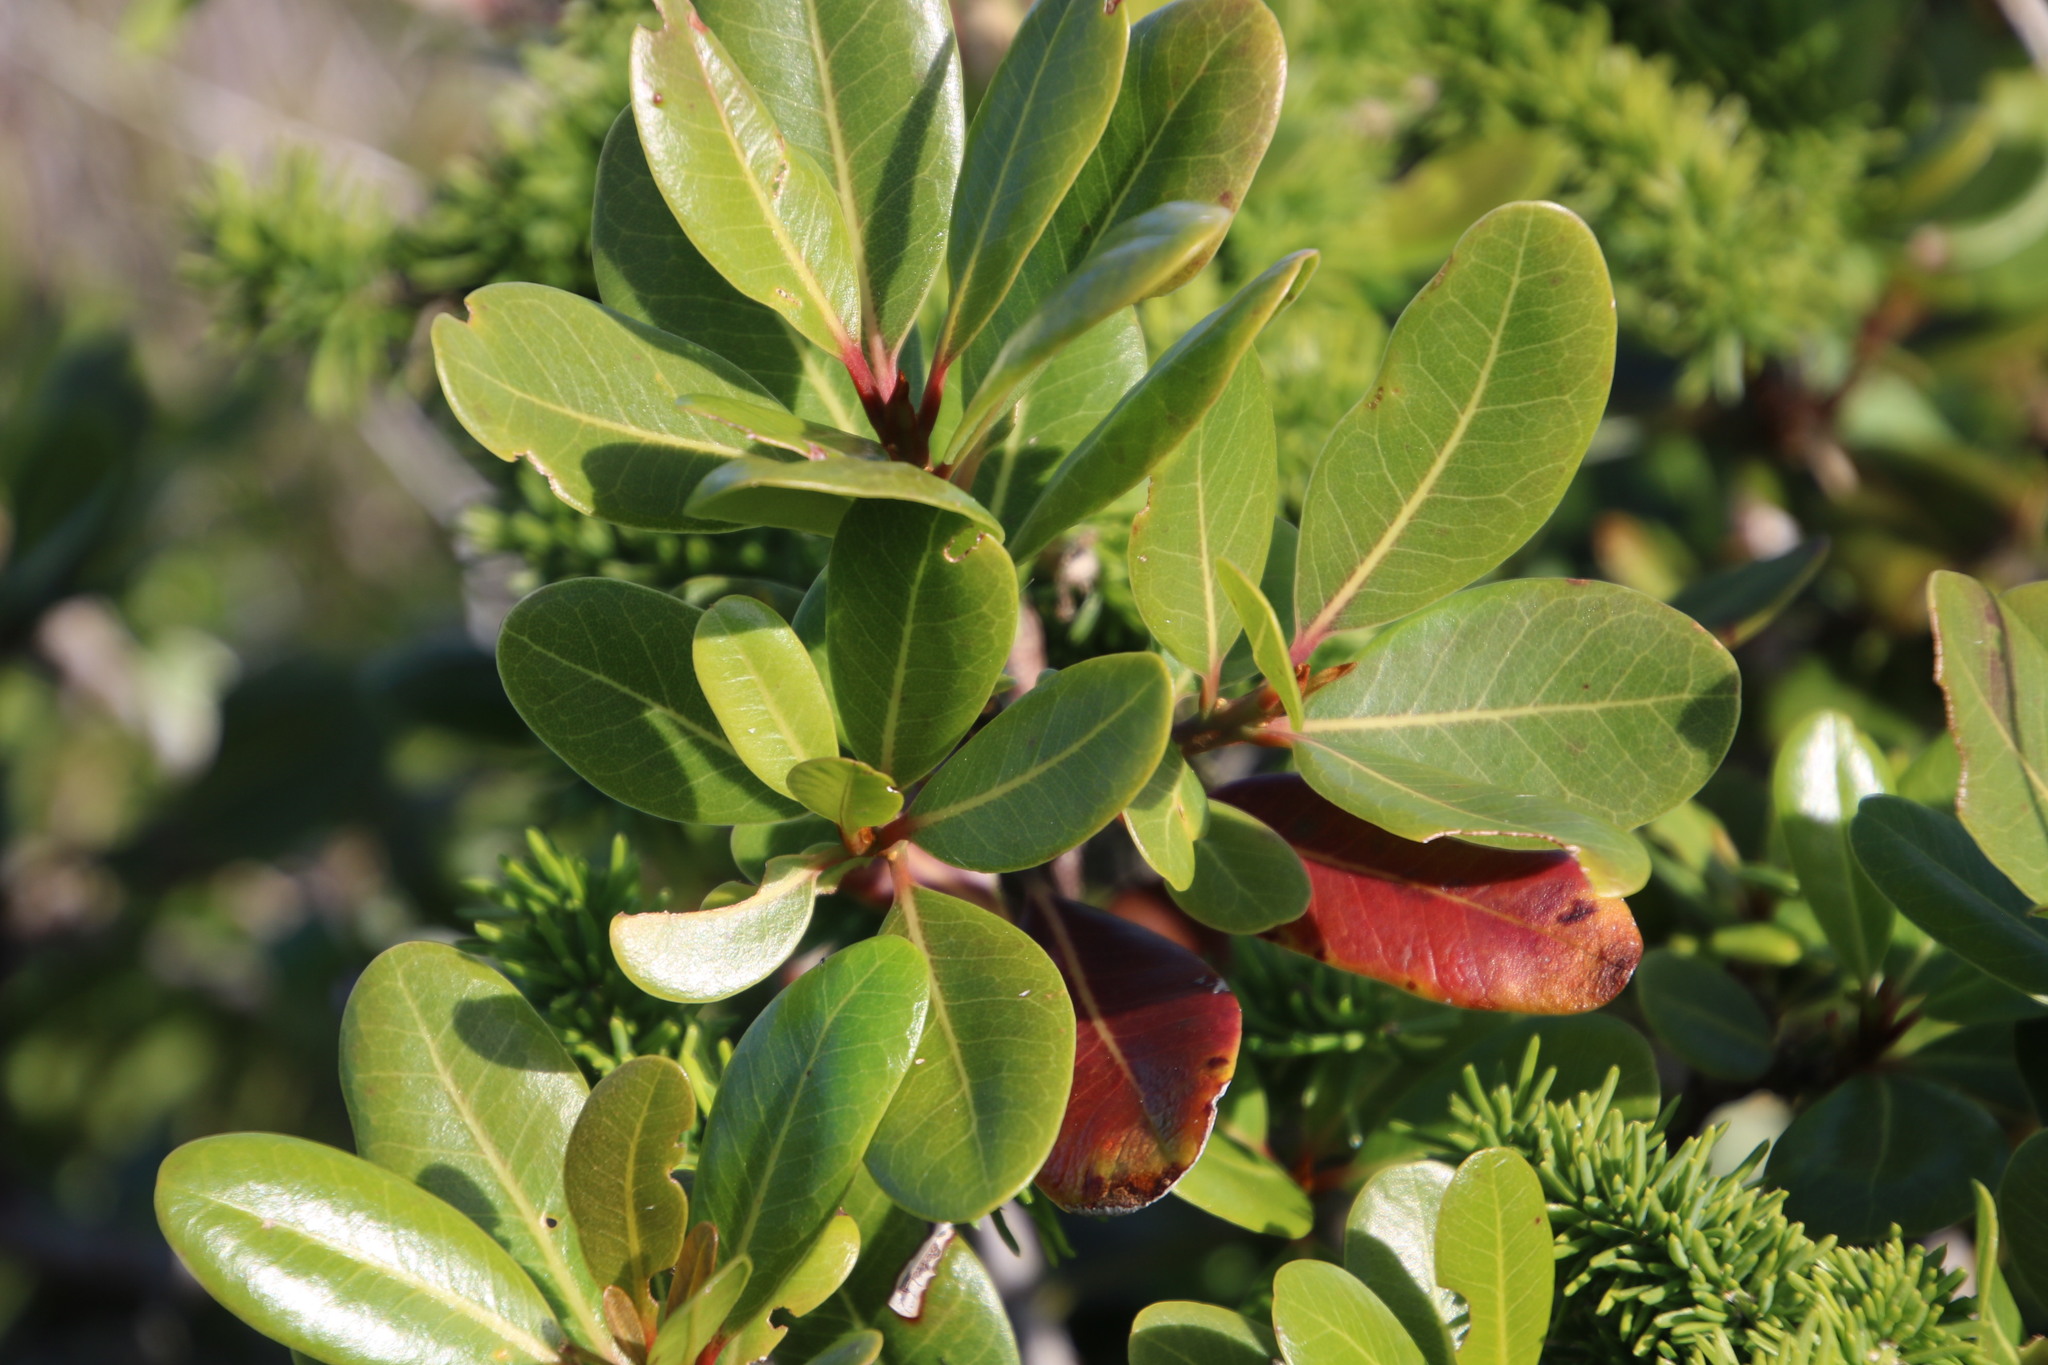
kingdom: Plantae
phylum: Tracheophyta
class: Magnoliopsida
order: Ericales
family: Sapotaceae
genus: Sideroxylon
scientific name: Sideroxylon inerme
